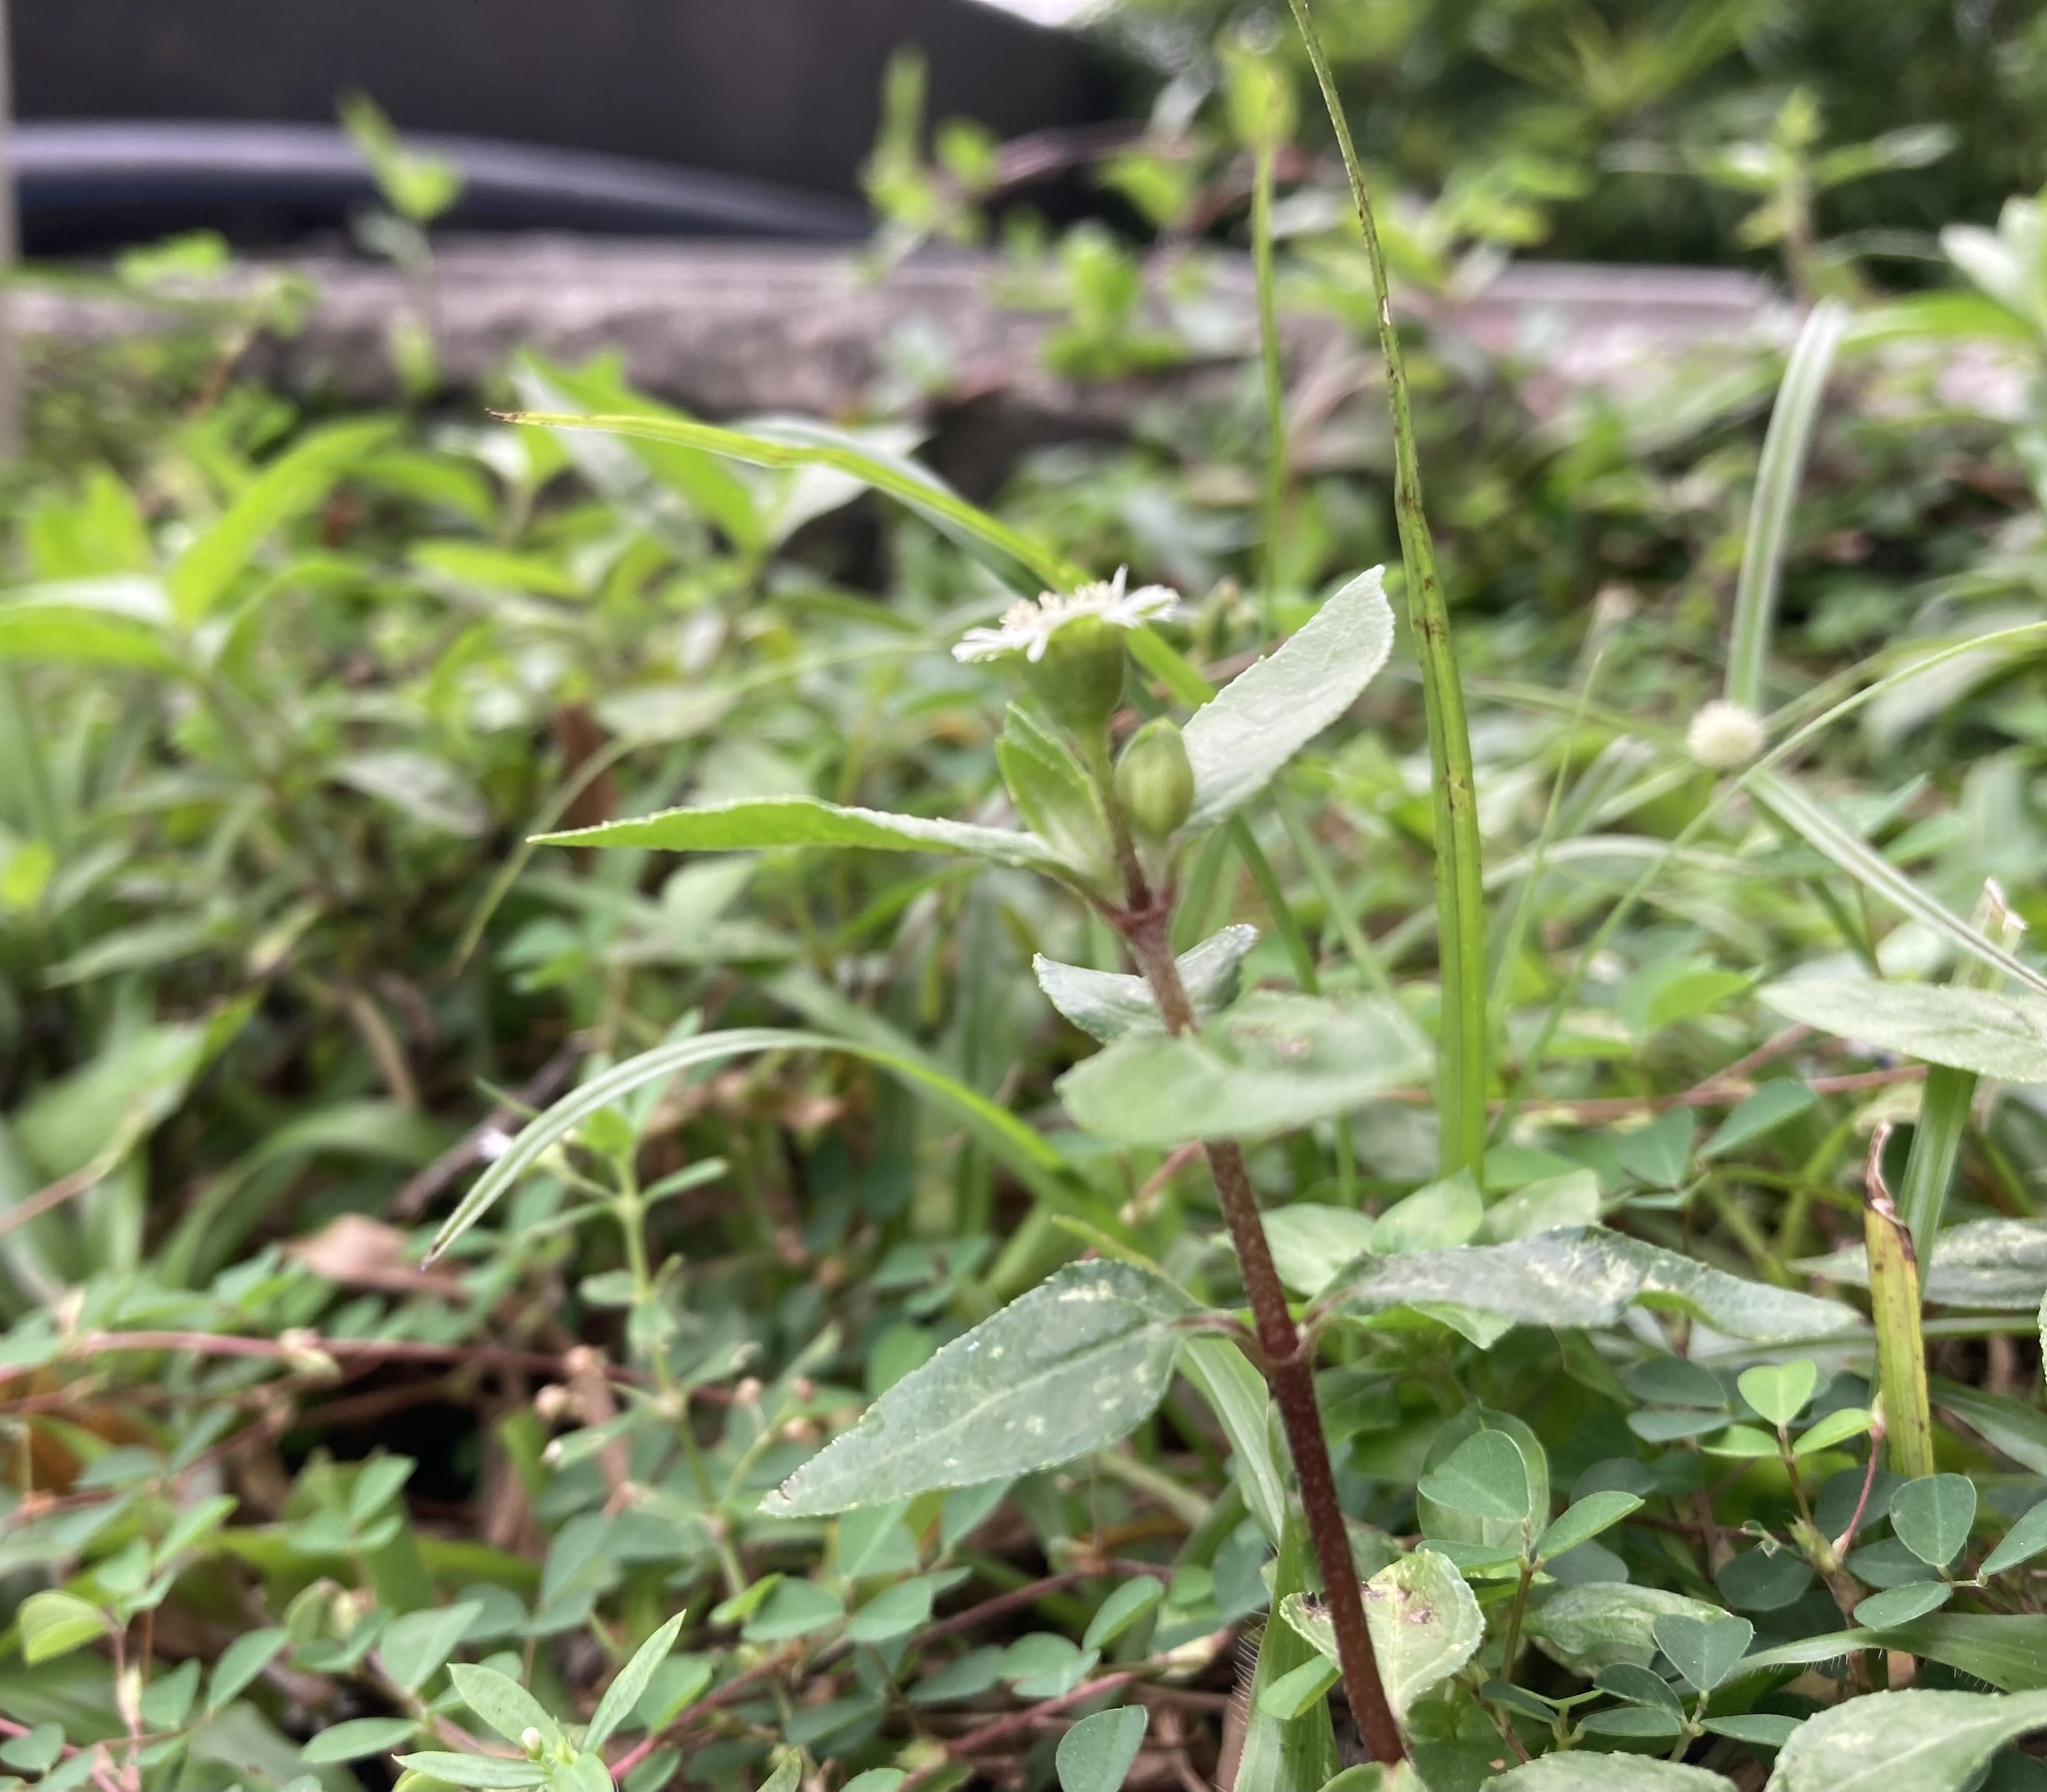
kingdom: Plantae
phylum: Tracheophyta
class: Magnoliopsida
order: Asterales
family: Asteraceae
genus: Eclipta
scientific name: Eclipta prostrata
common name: False daisy
